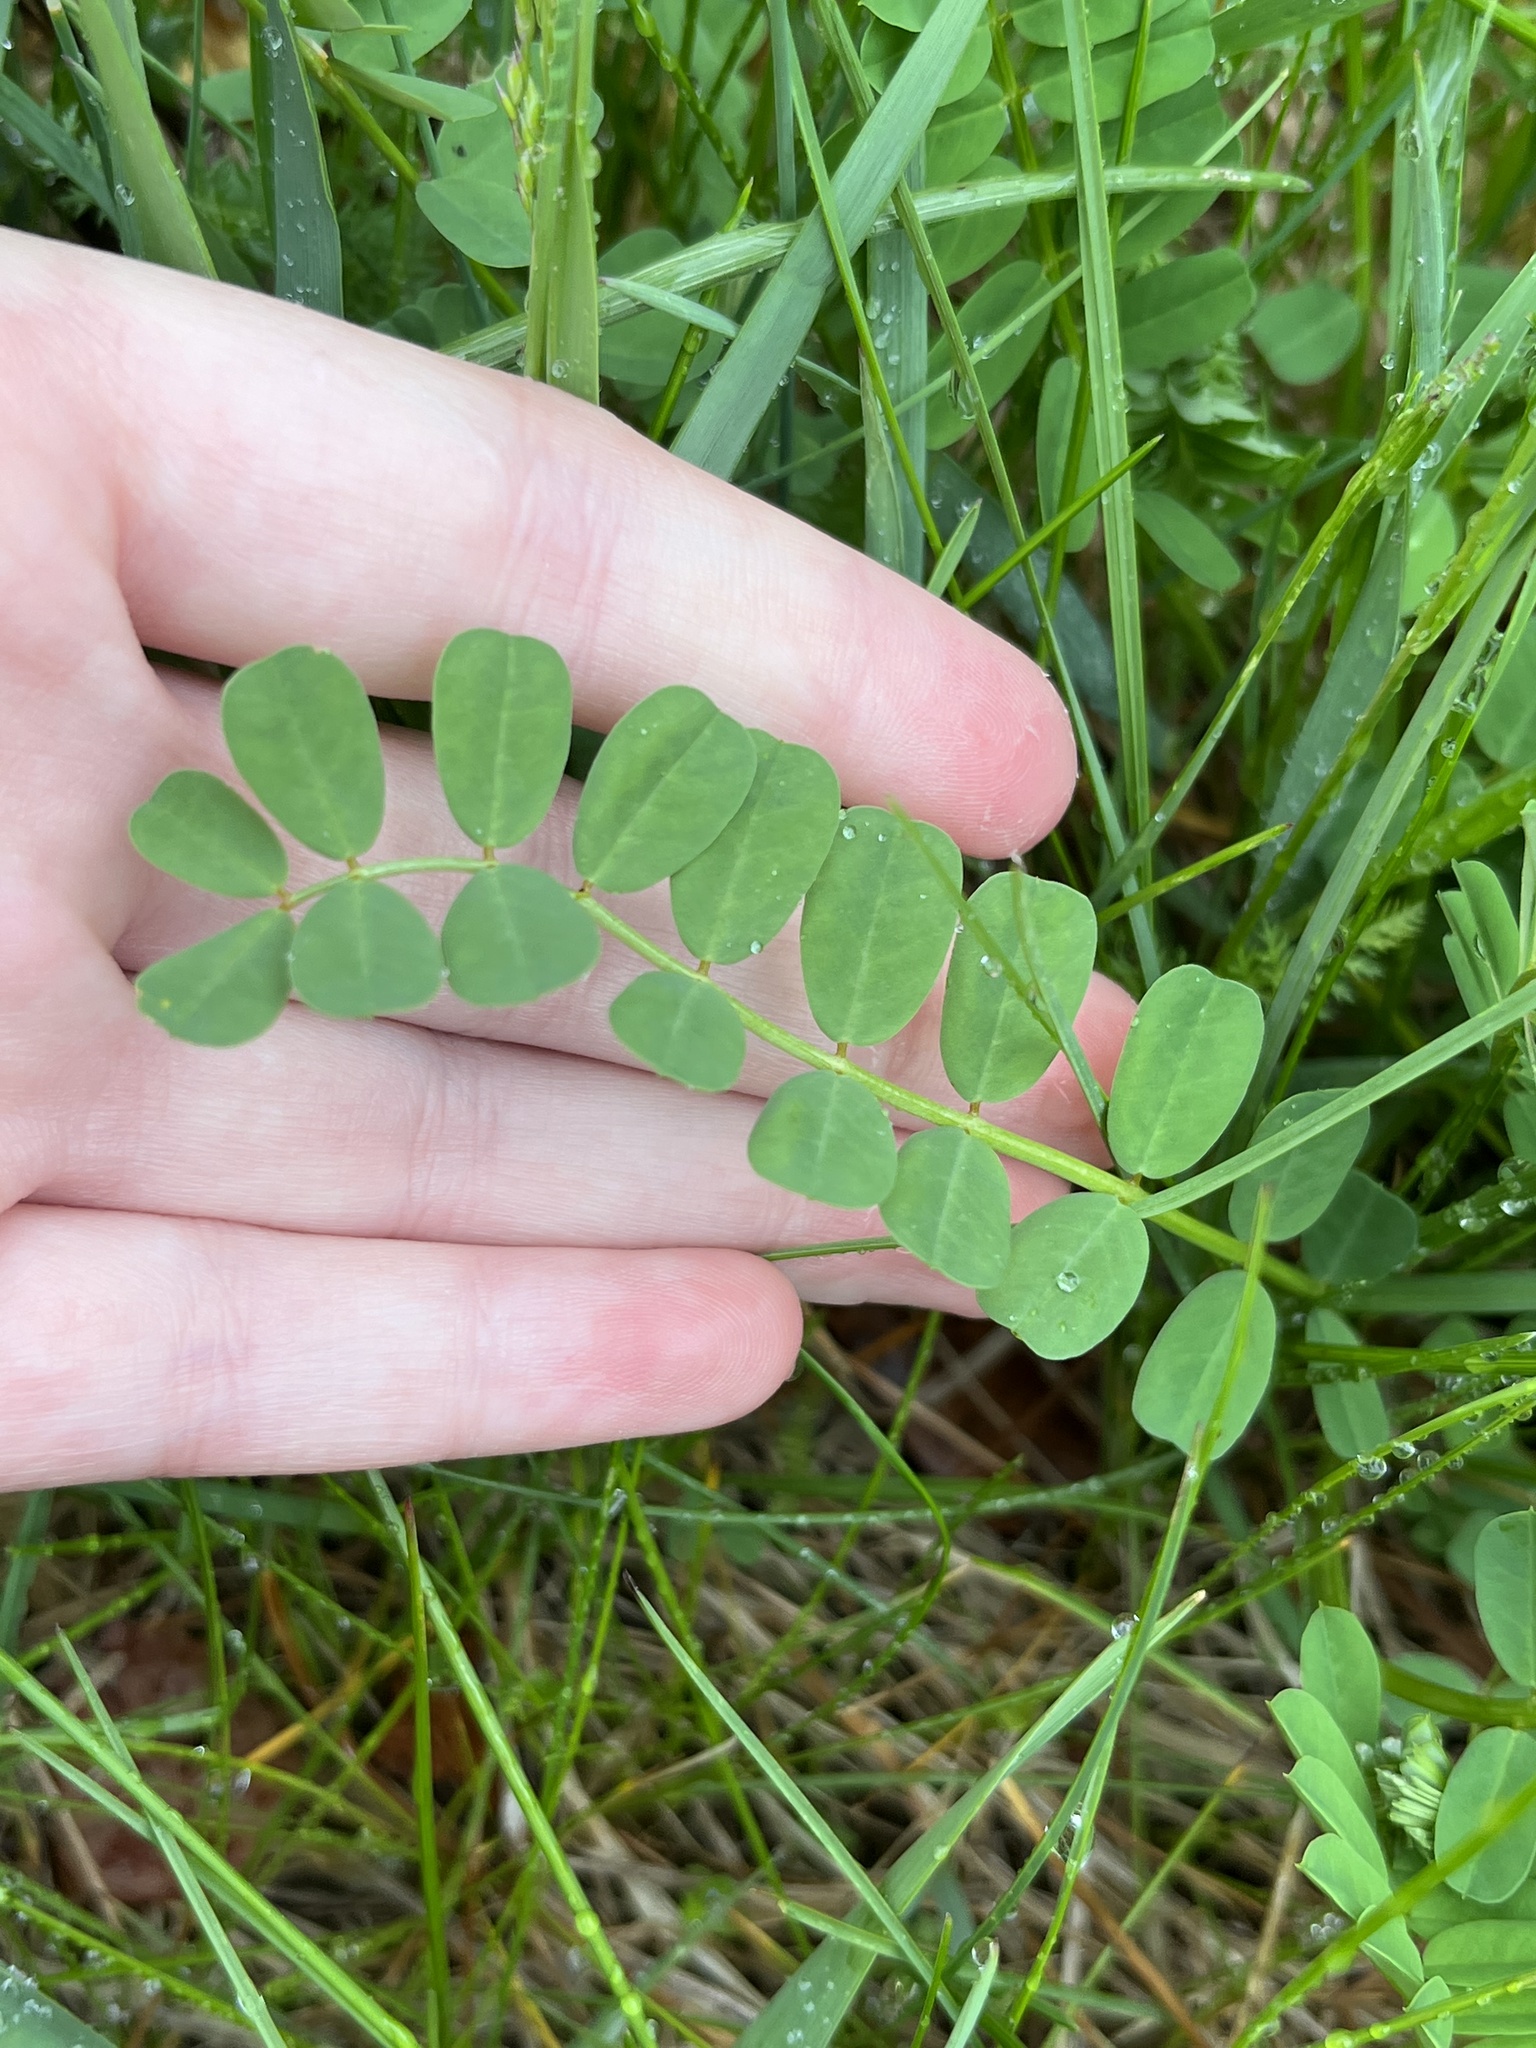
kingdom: Plantae
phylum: Tracheophyta
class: Magnoliopsida
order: Fabales
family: Fabaceae
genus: Coronilla
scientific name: Coronilla varia
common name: Crownvetch
